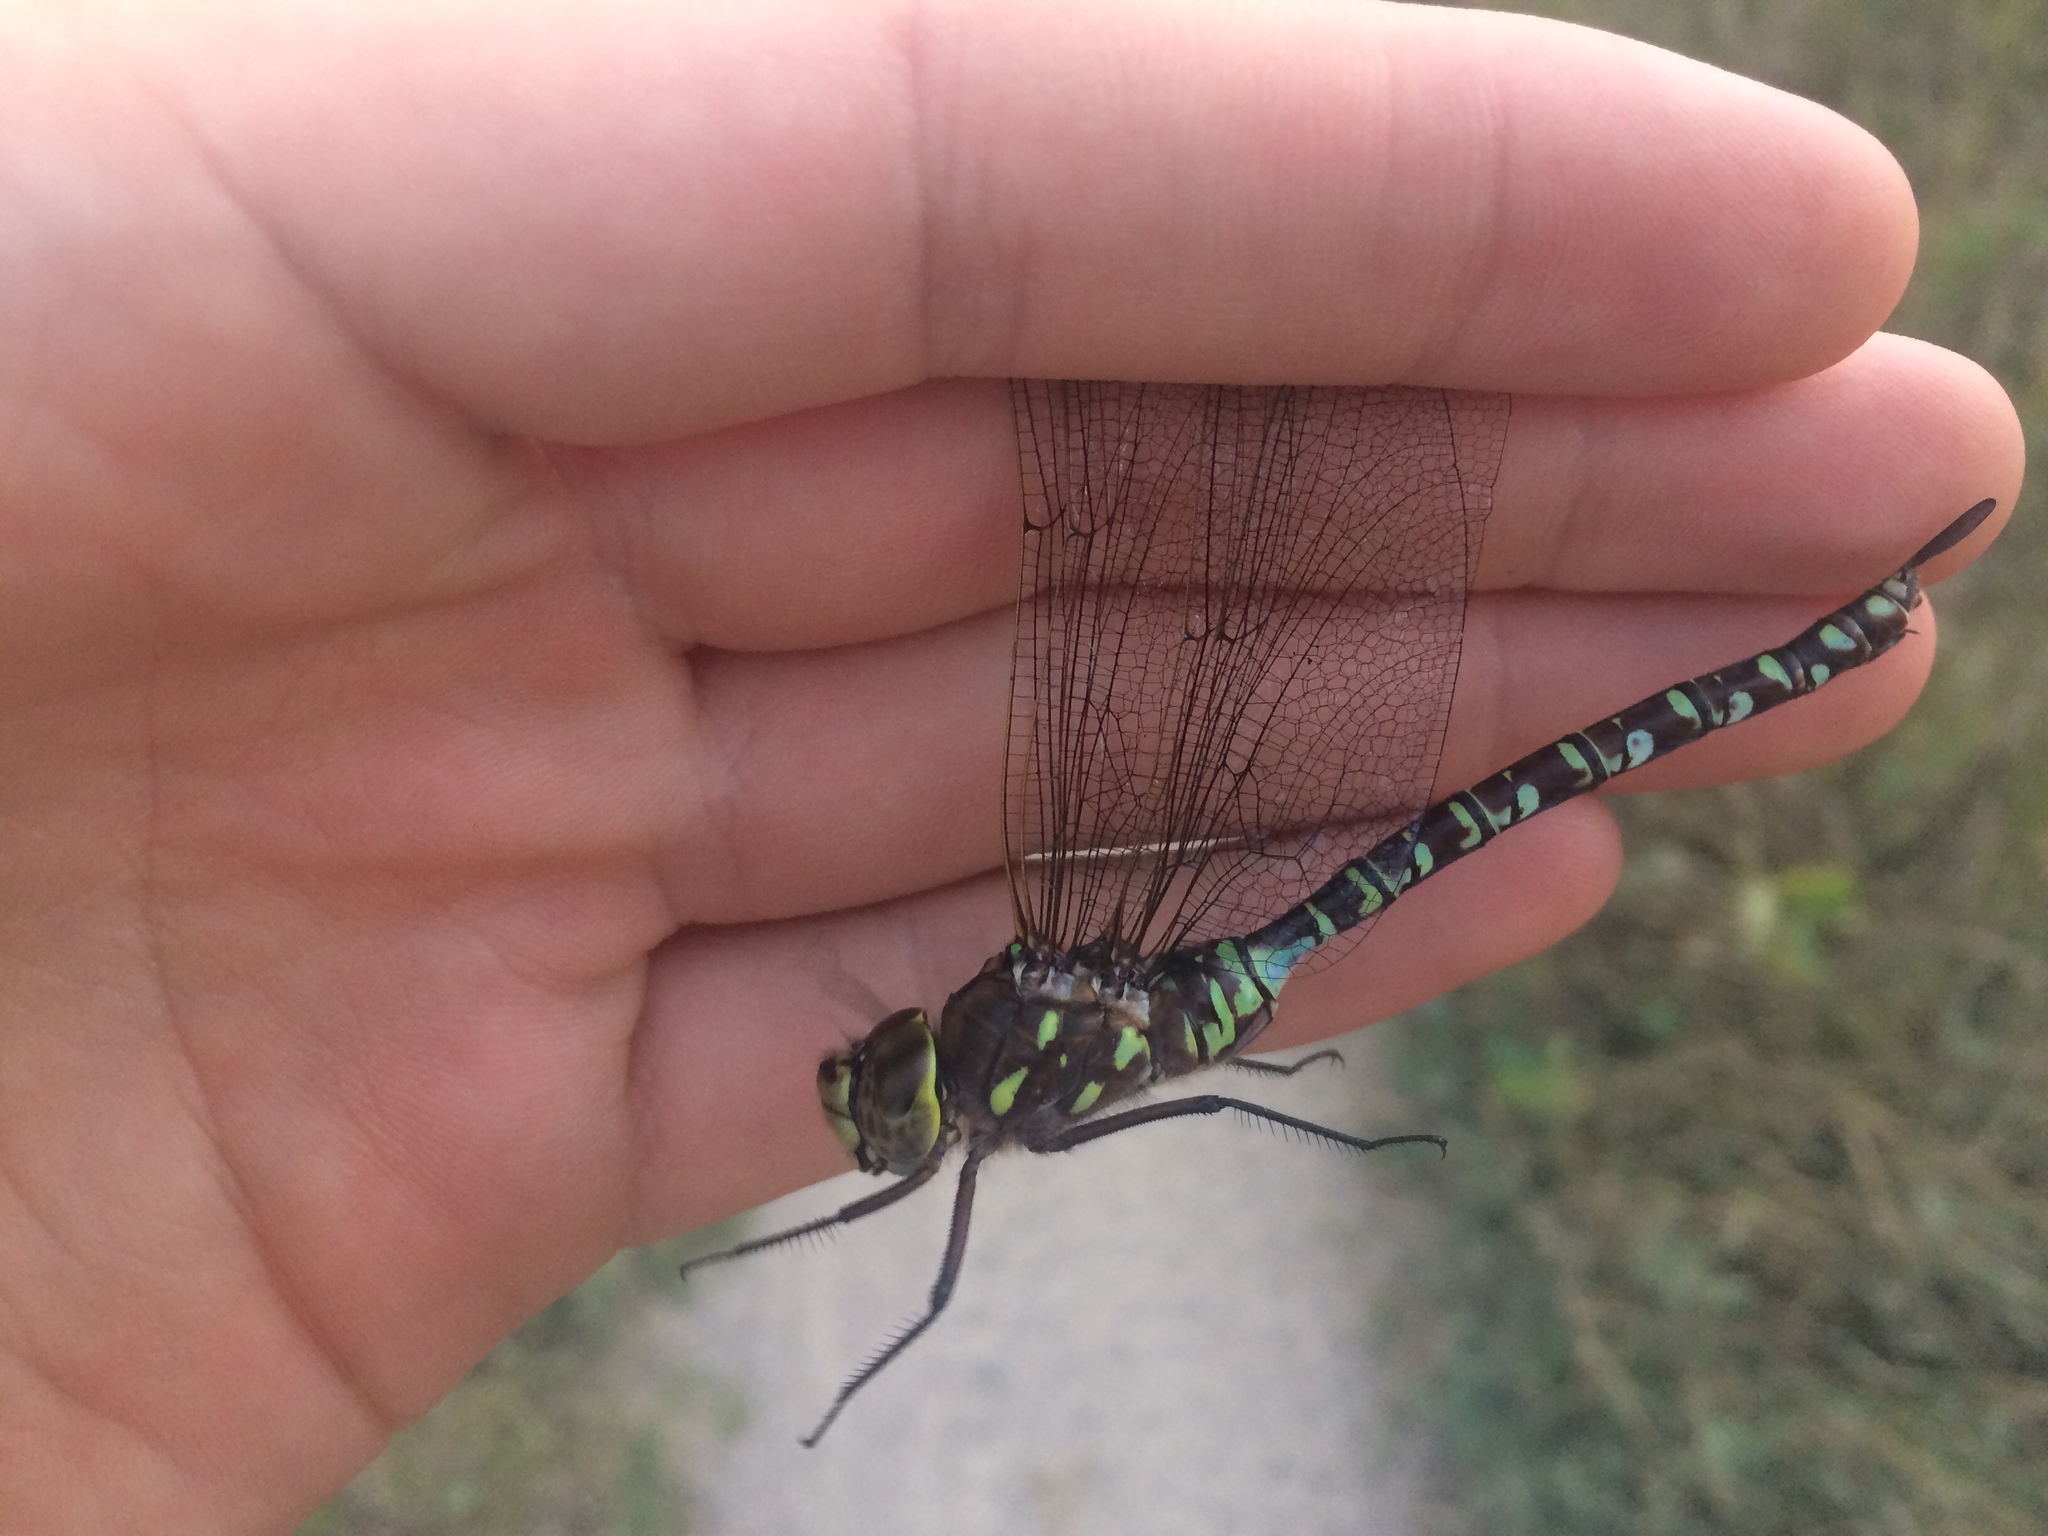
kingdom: Animalia
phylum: Arthropoda
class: Insecta
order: Odonata
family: Aeshnidae
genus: Aeshna
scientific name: Aeshna interrupta
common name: Variable darner
